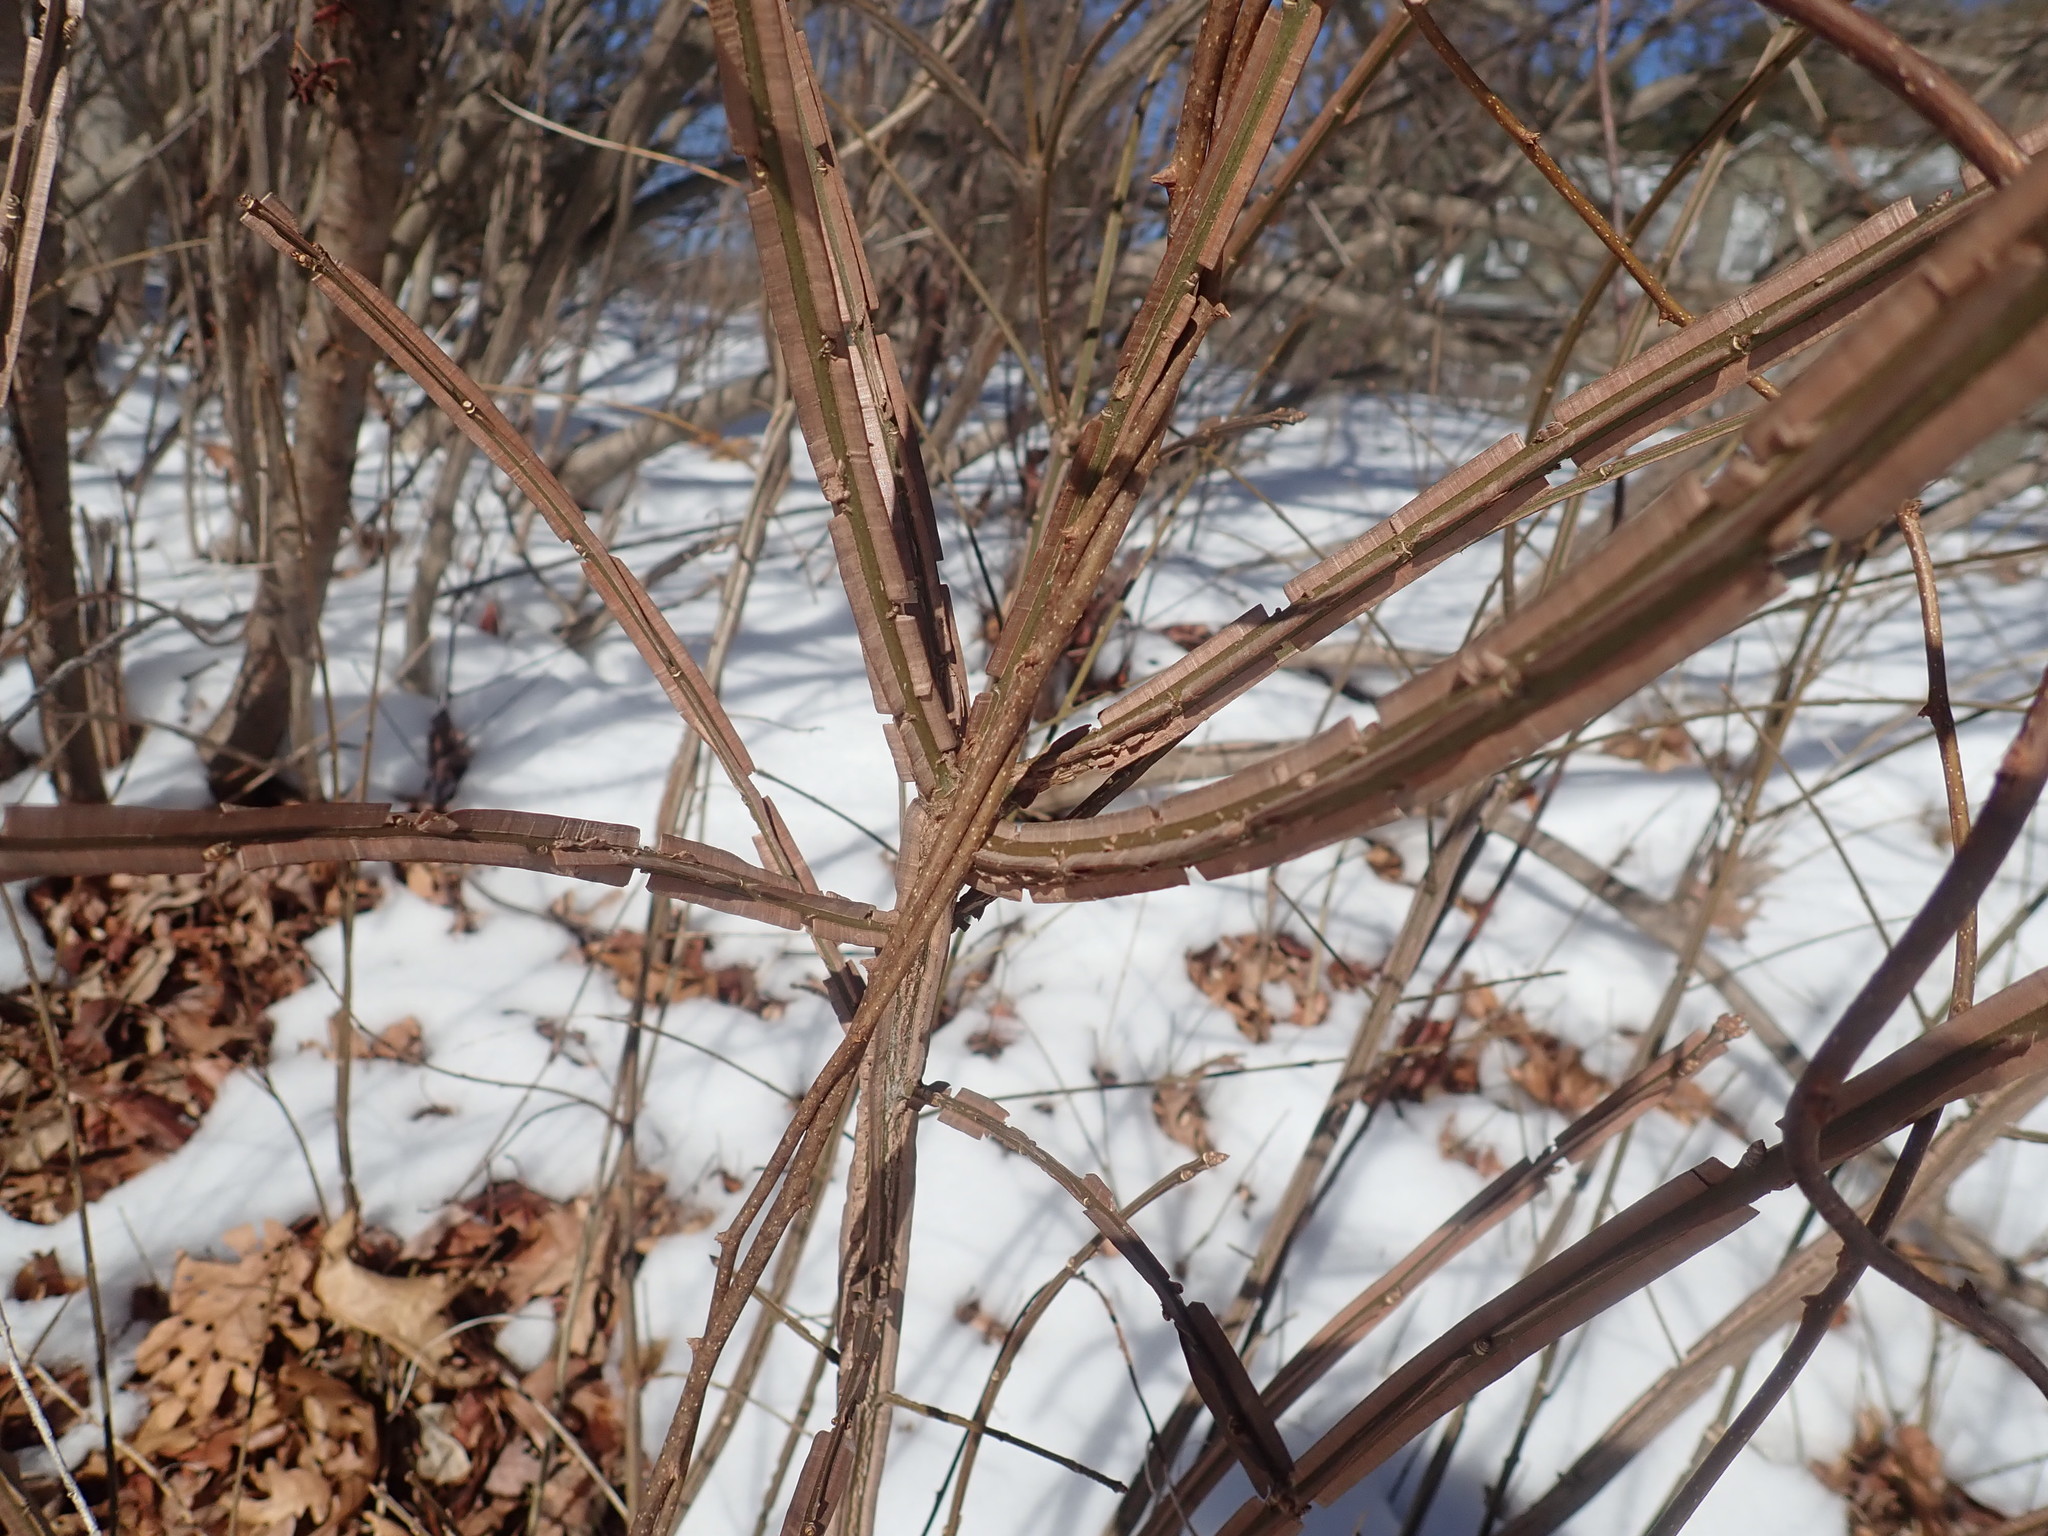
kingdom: Plantae
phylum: Tracheophyta
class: Magnoliopsida
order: Celastrales
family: Celastraceae
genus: Euonymus
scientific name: Euonymus alatus
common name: Winged euonymus
